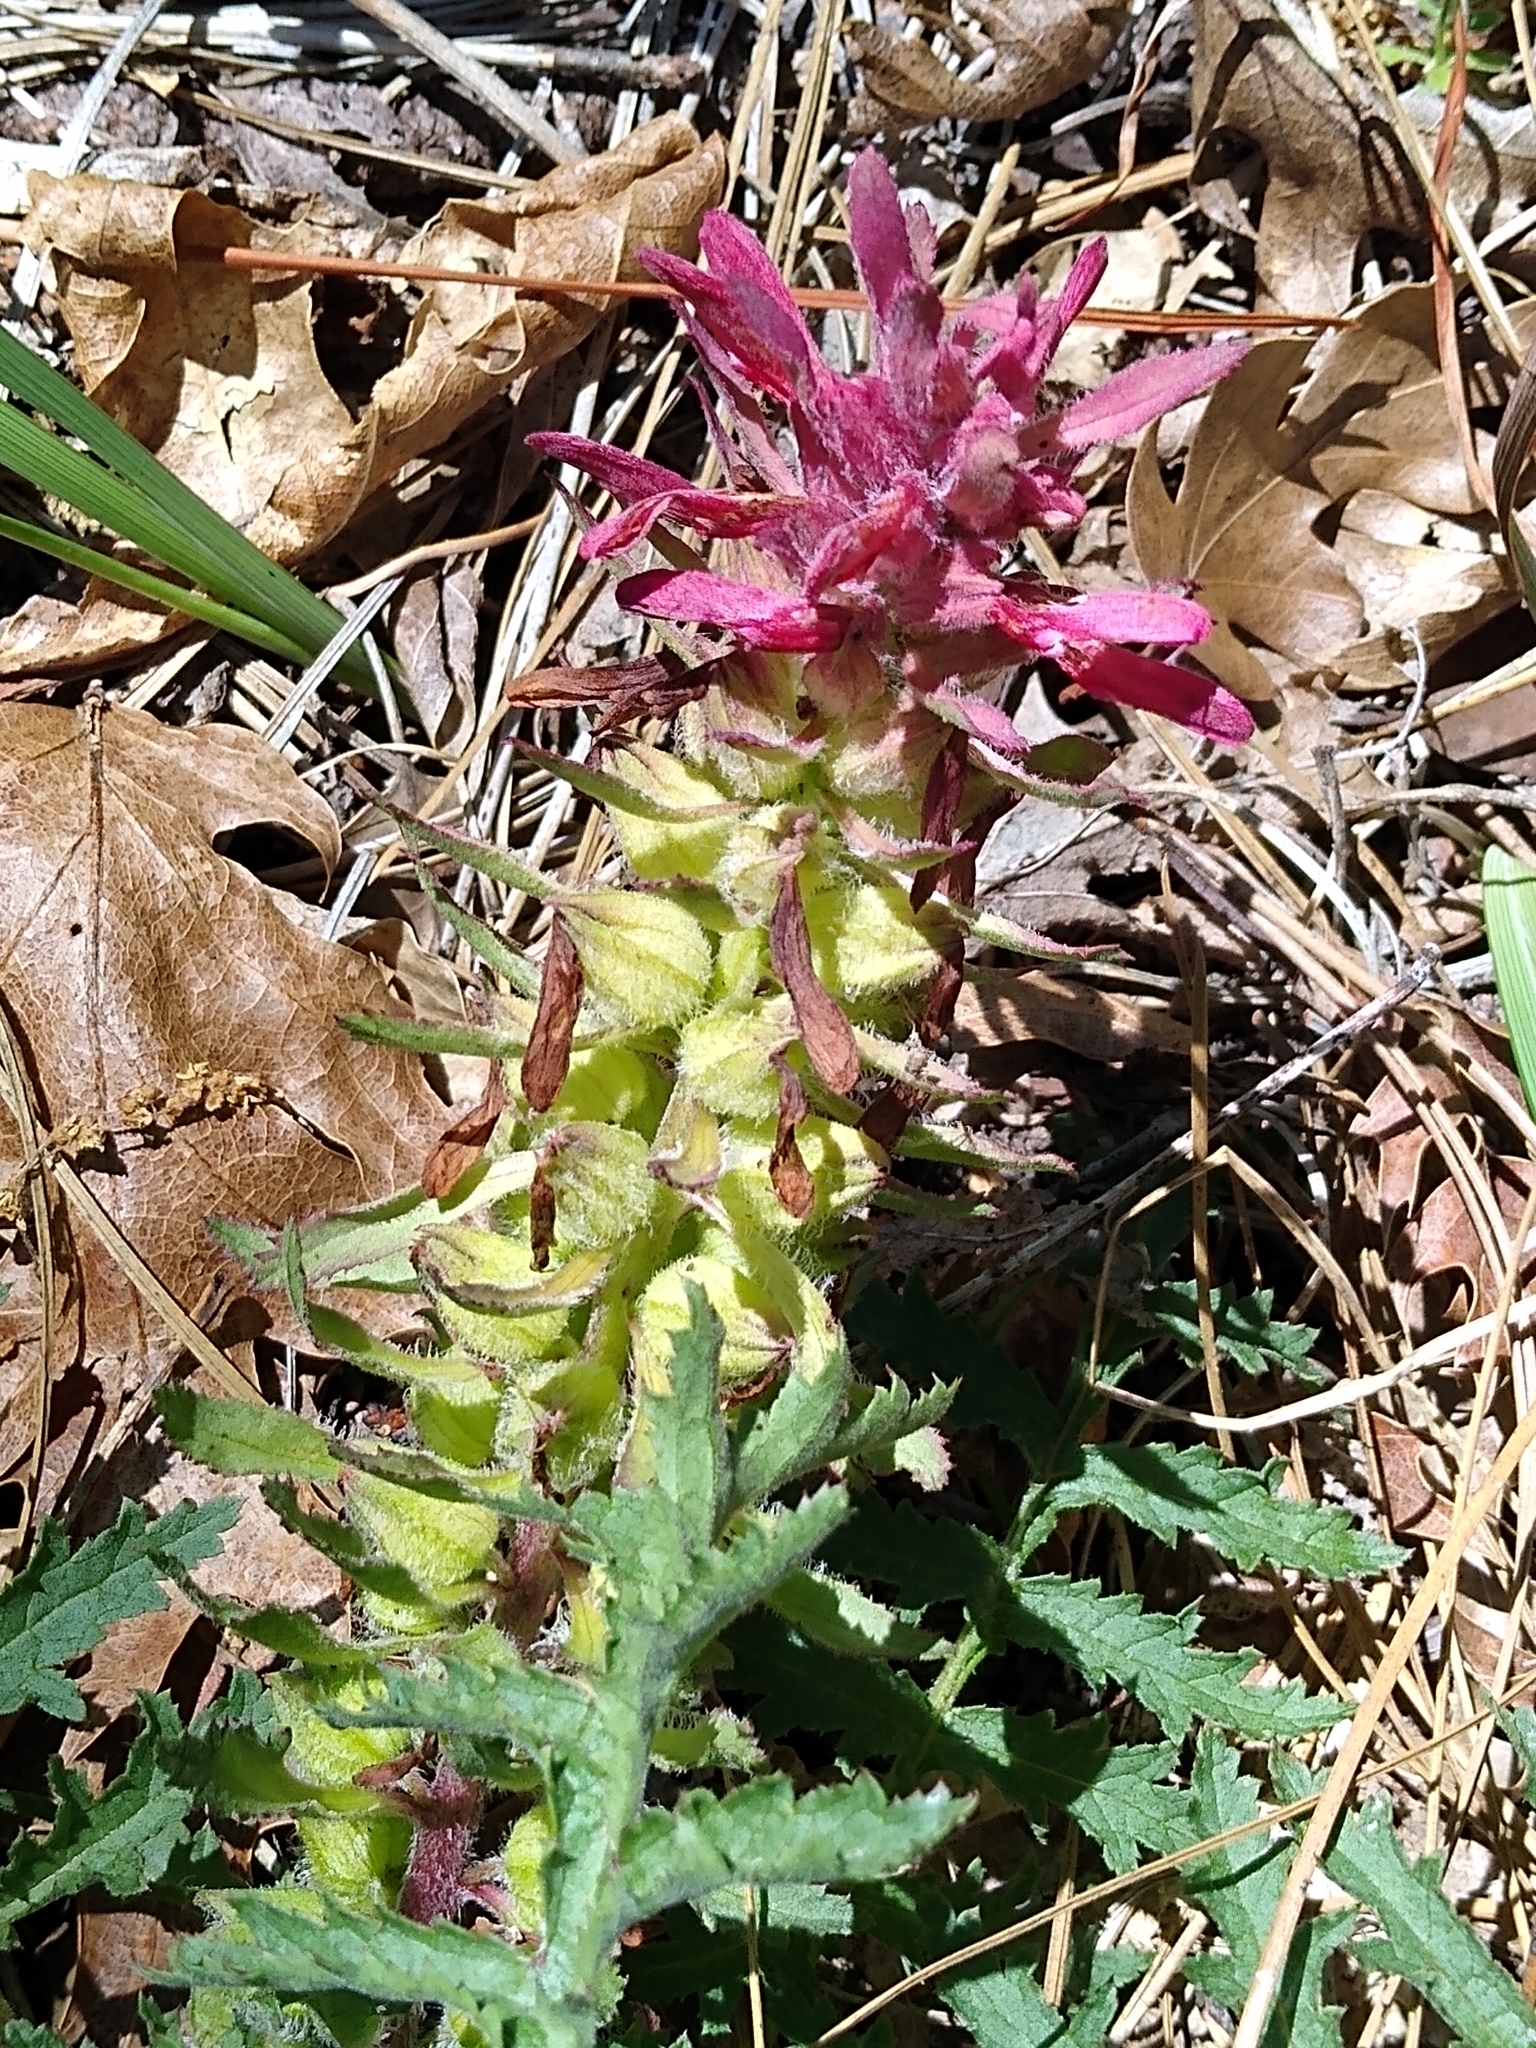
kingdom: Plantae
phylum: Tracheophyta
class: Magnoliopsida
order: Lamiales
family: Orobanchaceae
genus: Pedicularis
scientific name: Pedicularis densiflora
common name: Indian warrior
